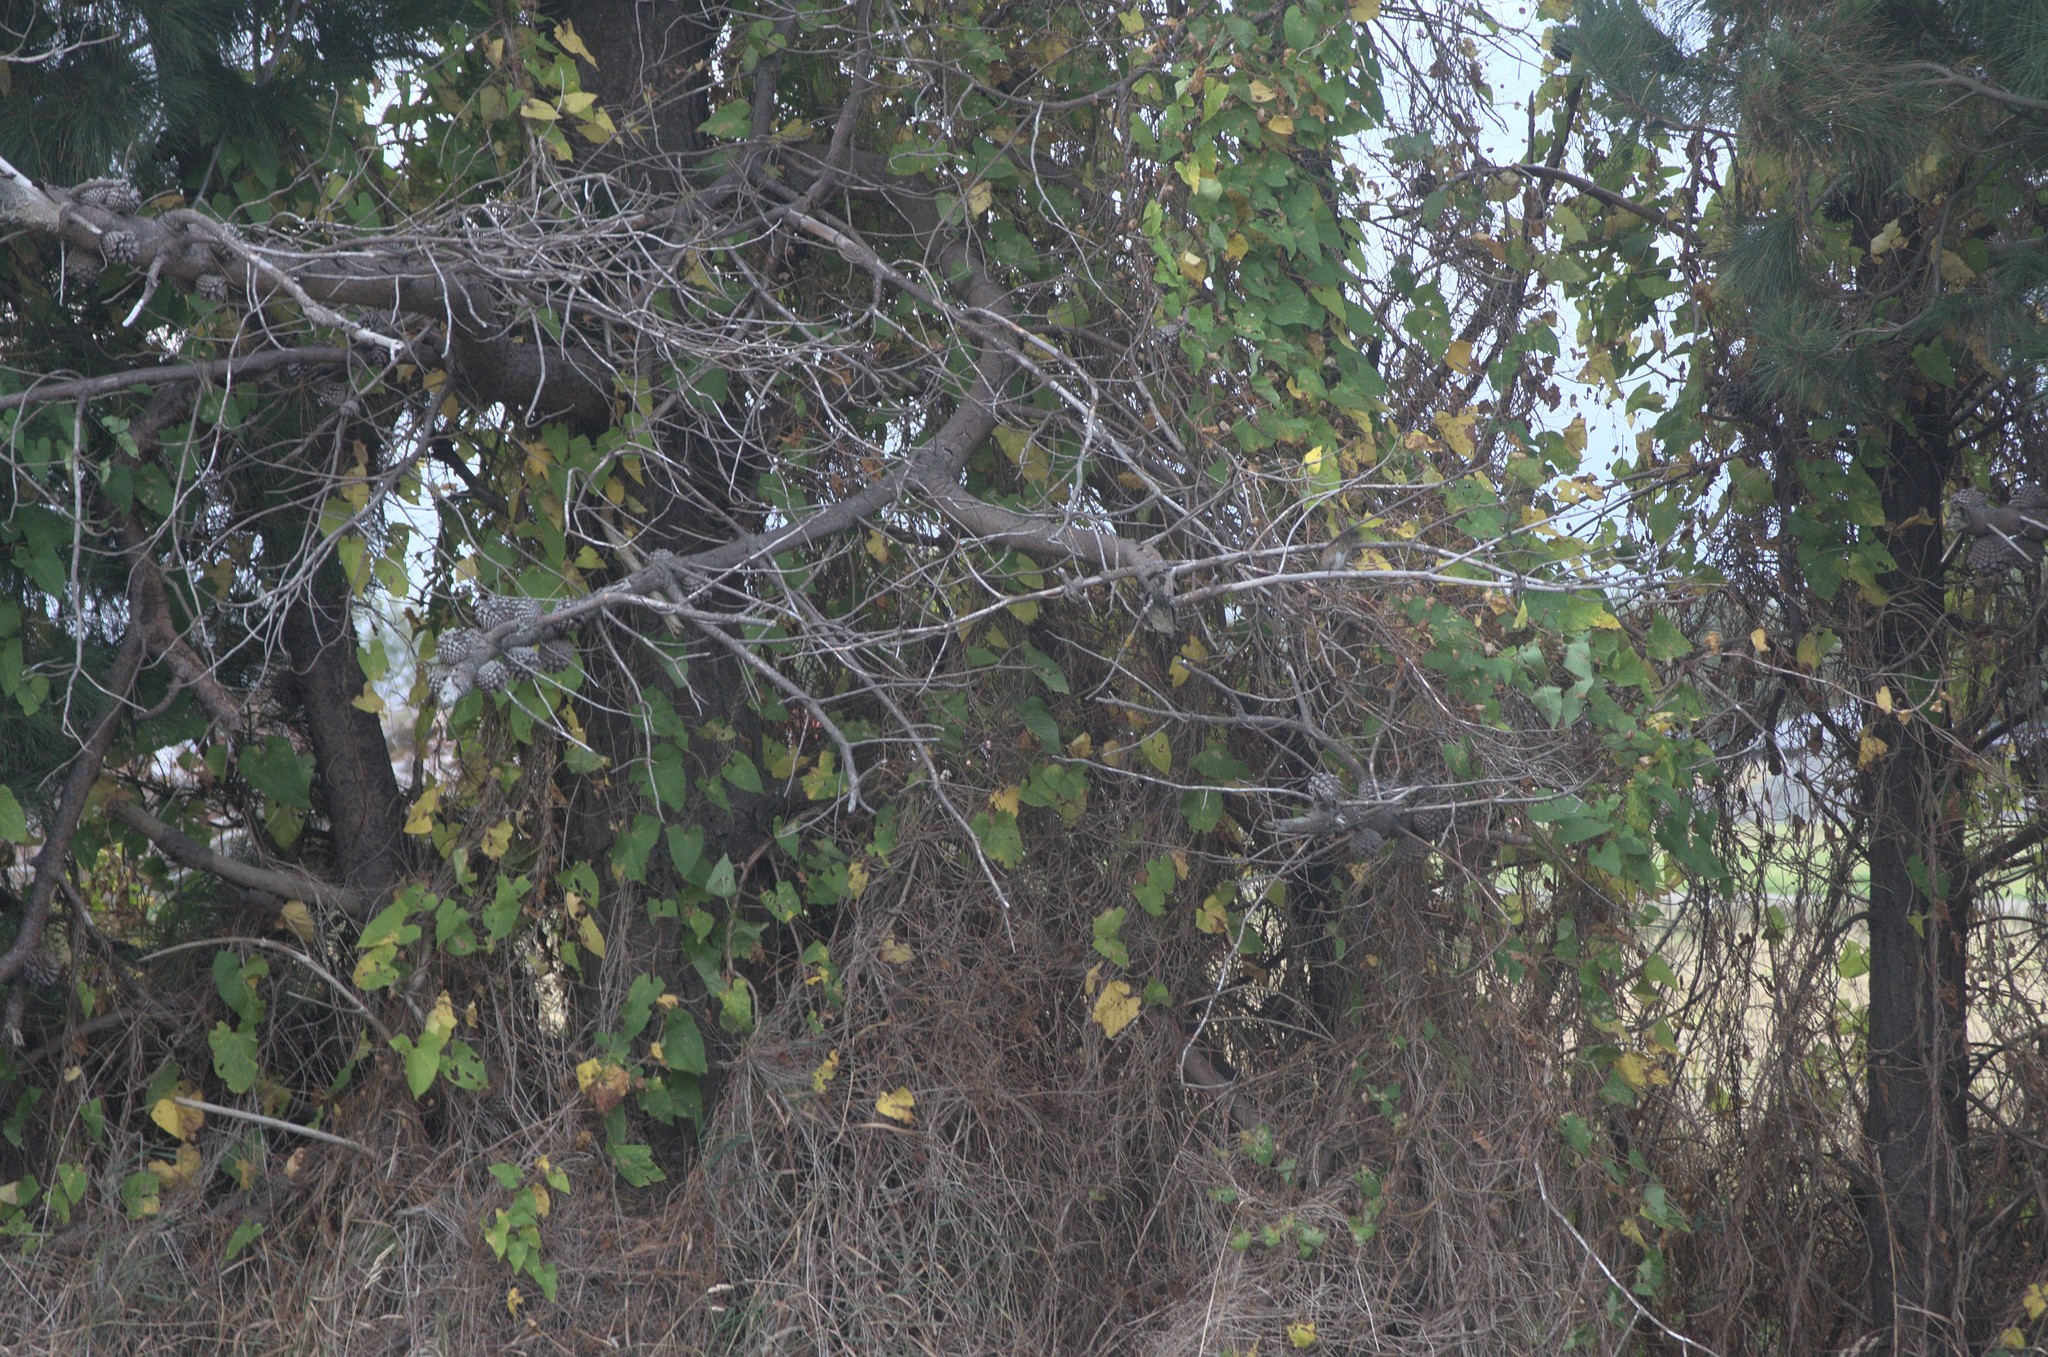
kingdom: Plantae
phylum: Tracheophyta
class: Magnoliopsida
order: Solanales
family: Convolvulaceae
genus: Calystegia
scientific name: Calystegia silvatica
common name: Large bindweed
